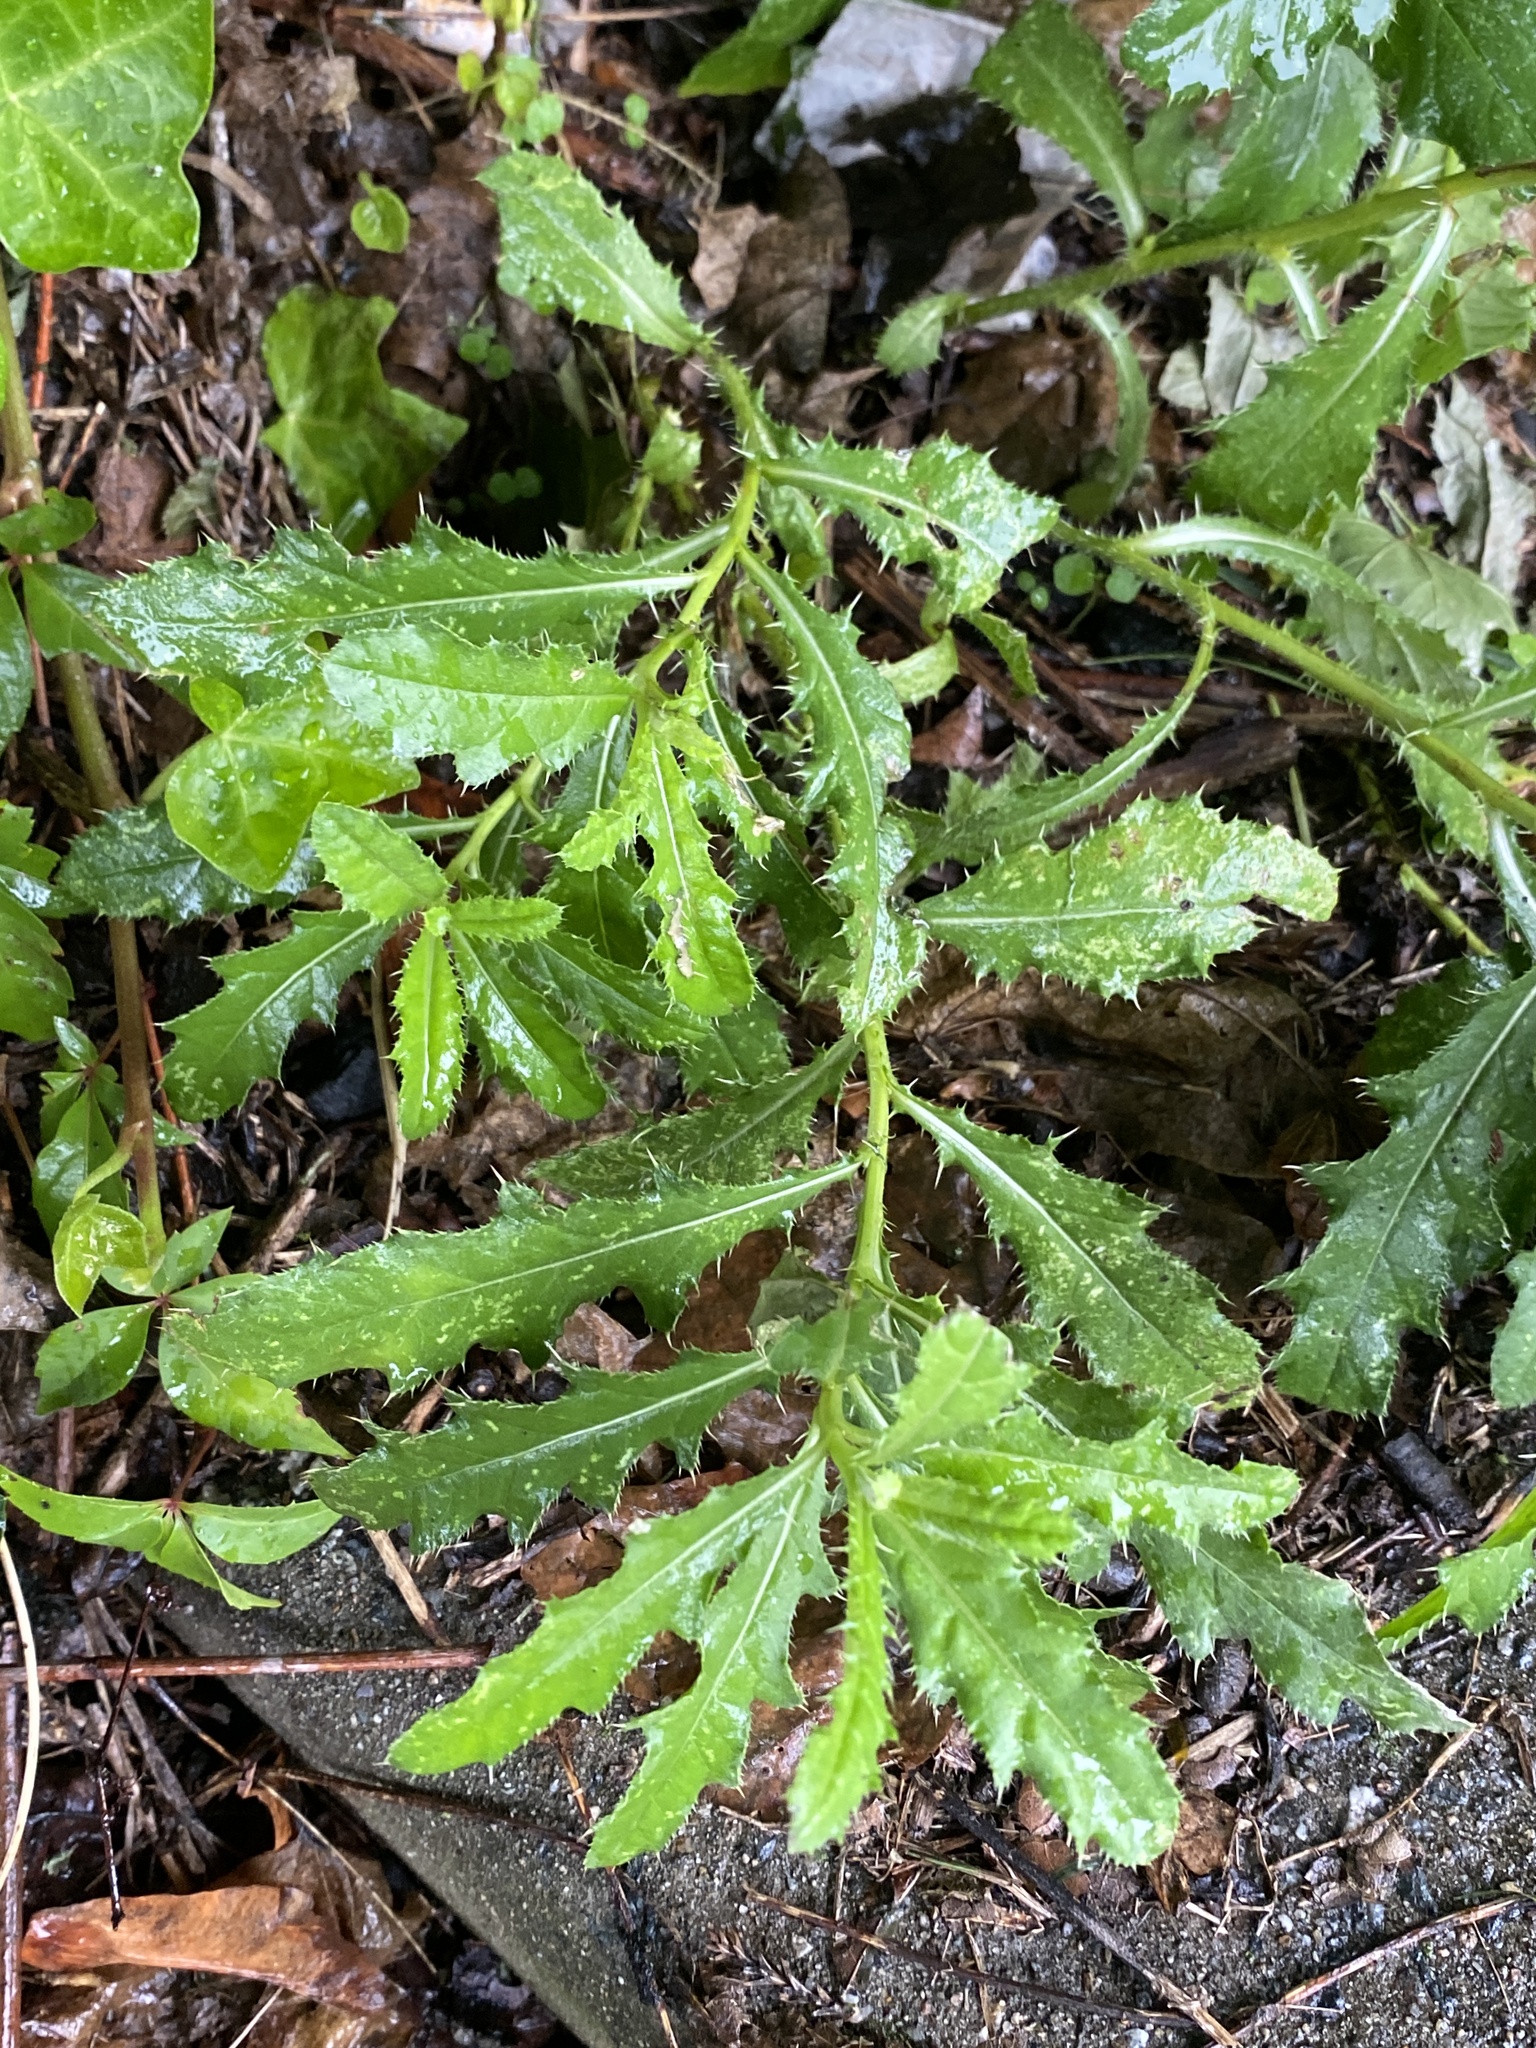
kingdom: Plantae
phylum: Tracheophyta
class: Magnoliopsida
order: Asterales
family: Asteraceae
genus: Cirsium
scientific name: Cirsium arvense
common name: Creeping thistle
